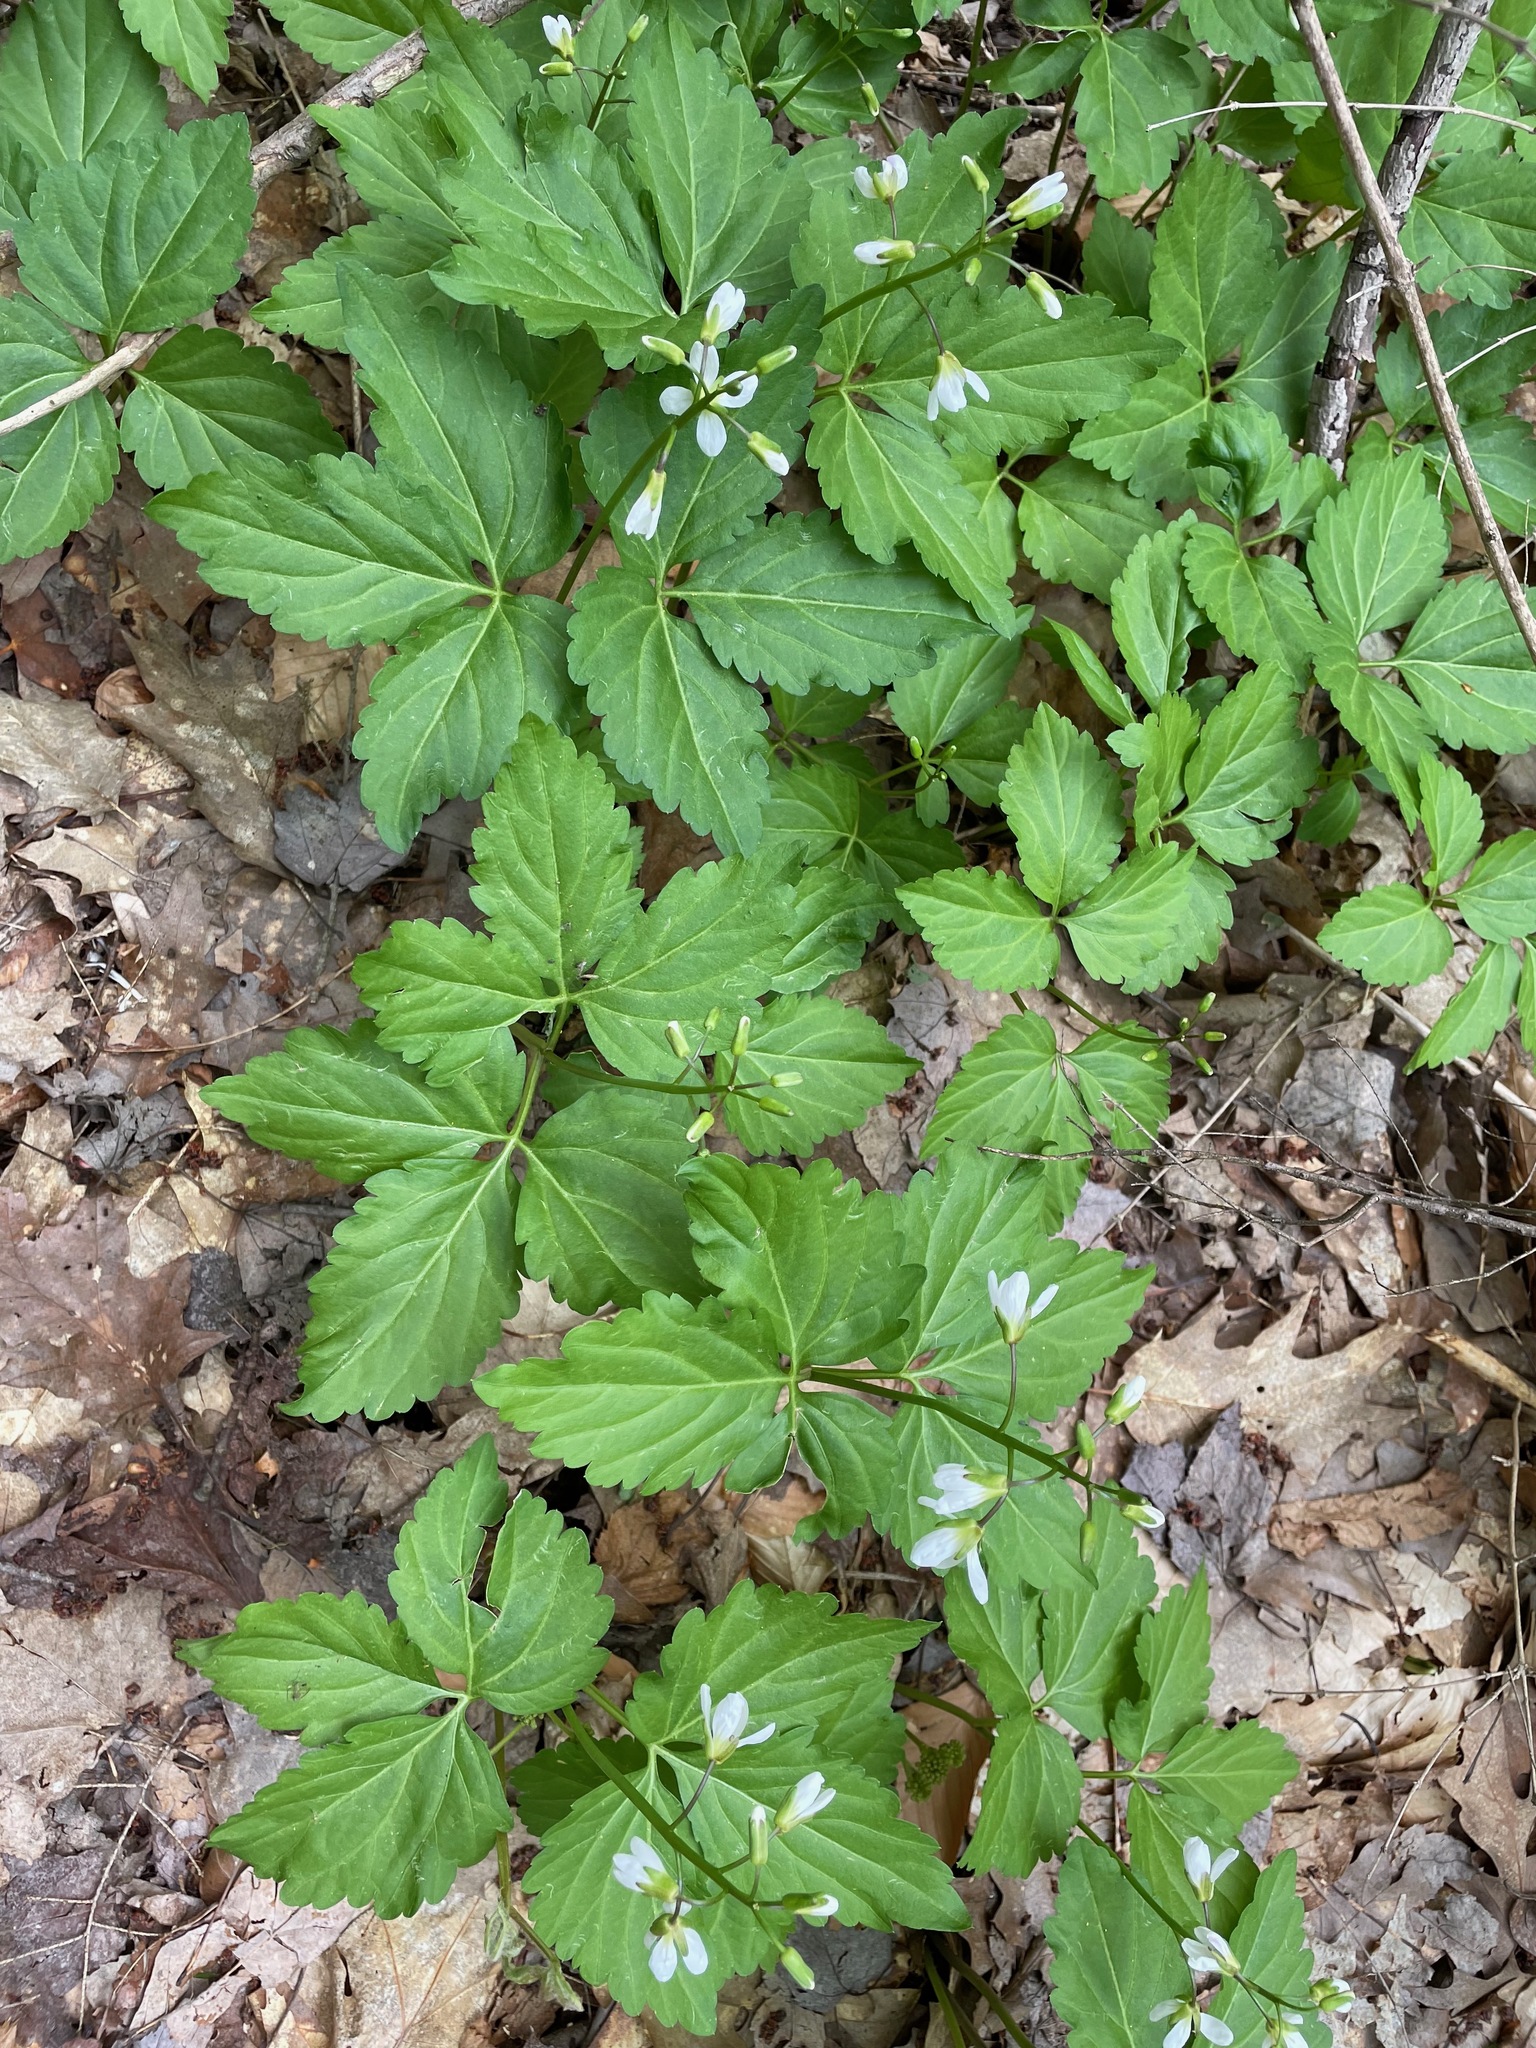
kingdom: Plantae
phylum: Tracheophyta
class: Magnoliopsida
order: Brassicales
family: Brassicaceae
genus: Cardamine
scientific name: Cardamine diphylla
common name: Broad-leaved toothwort
